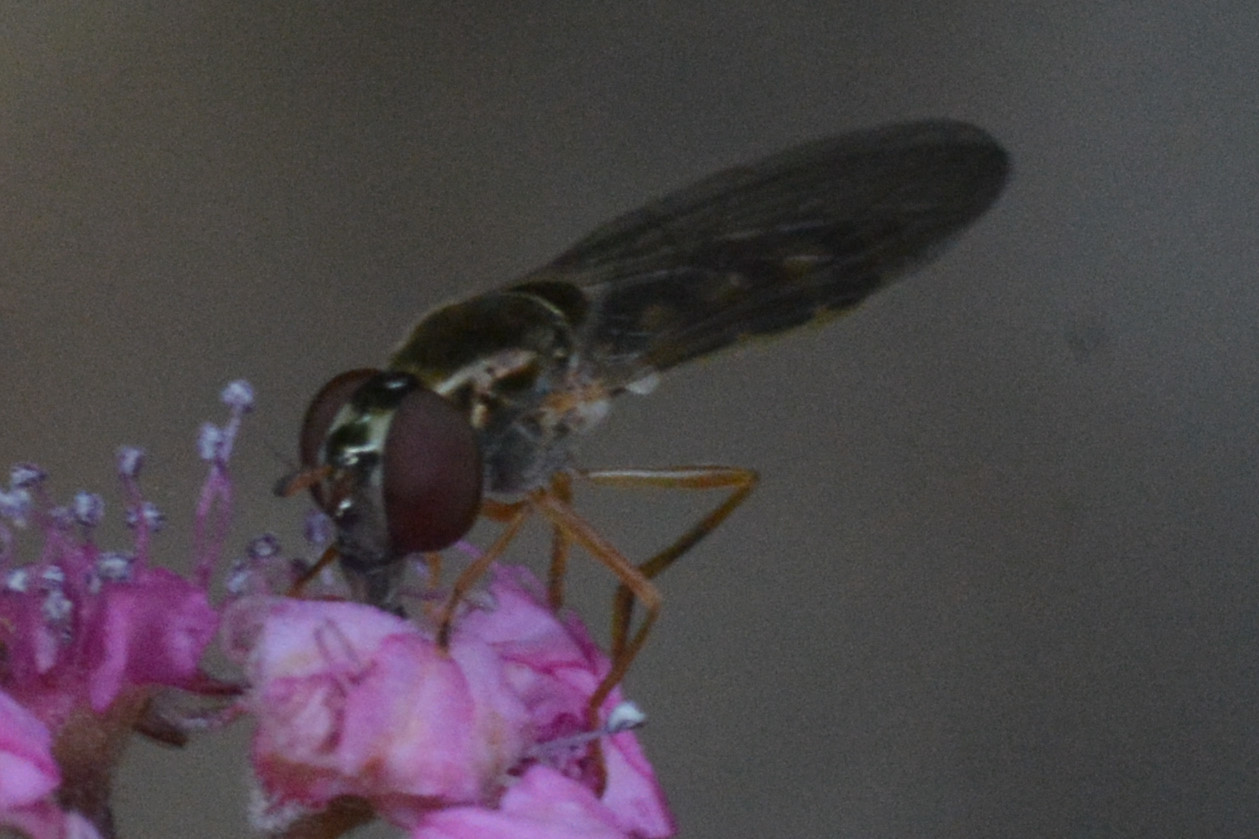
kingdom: Animalia
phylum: Arthropoda
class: Insecta
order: Diptera
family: Syrphidae
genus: Melanostoma
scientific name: Melanostoma scalare
